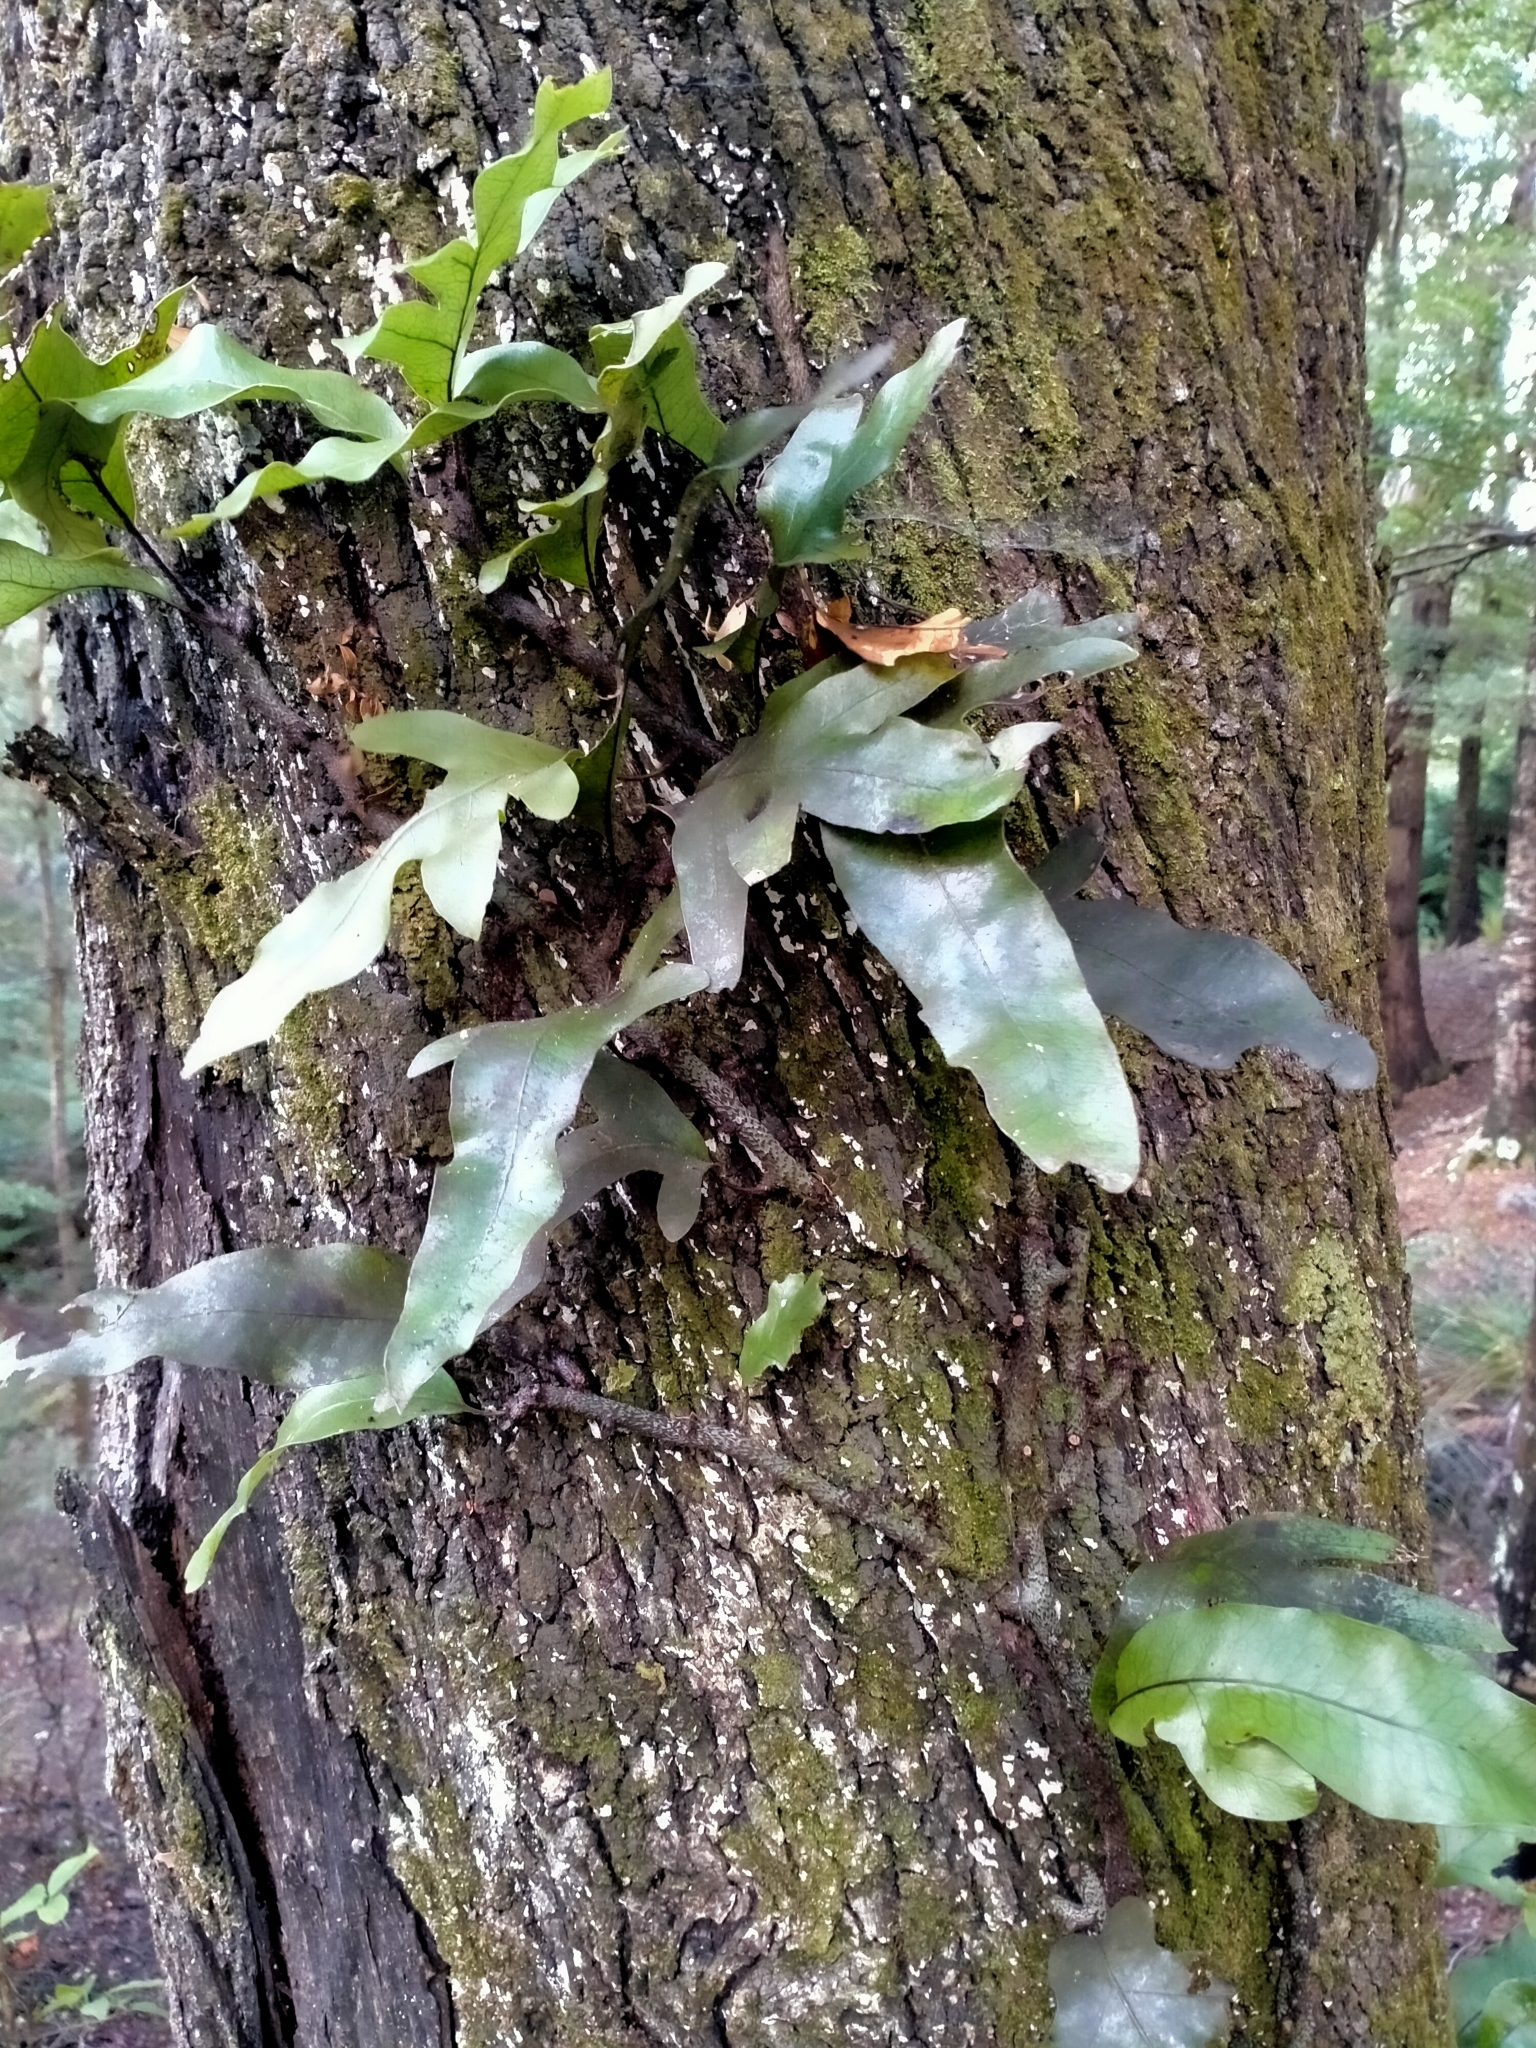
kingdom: Plantae
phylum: Tracheophyta
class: Polypodiopsida
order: Polypodiales
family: Polypodiaceae
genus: Lecanopteris
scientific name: Lecanopteris pustulata
